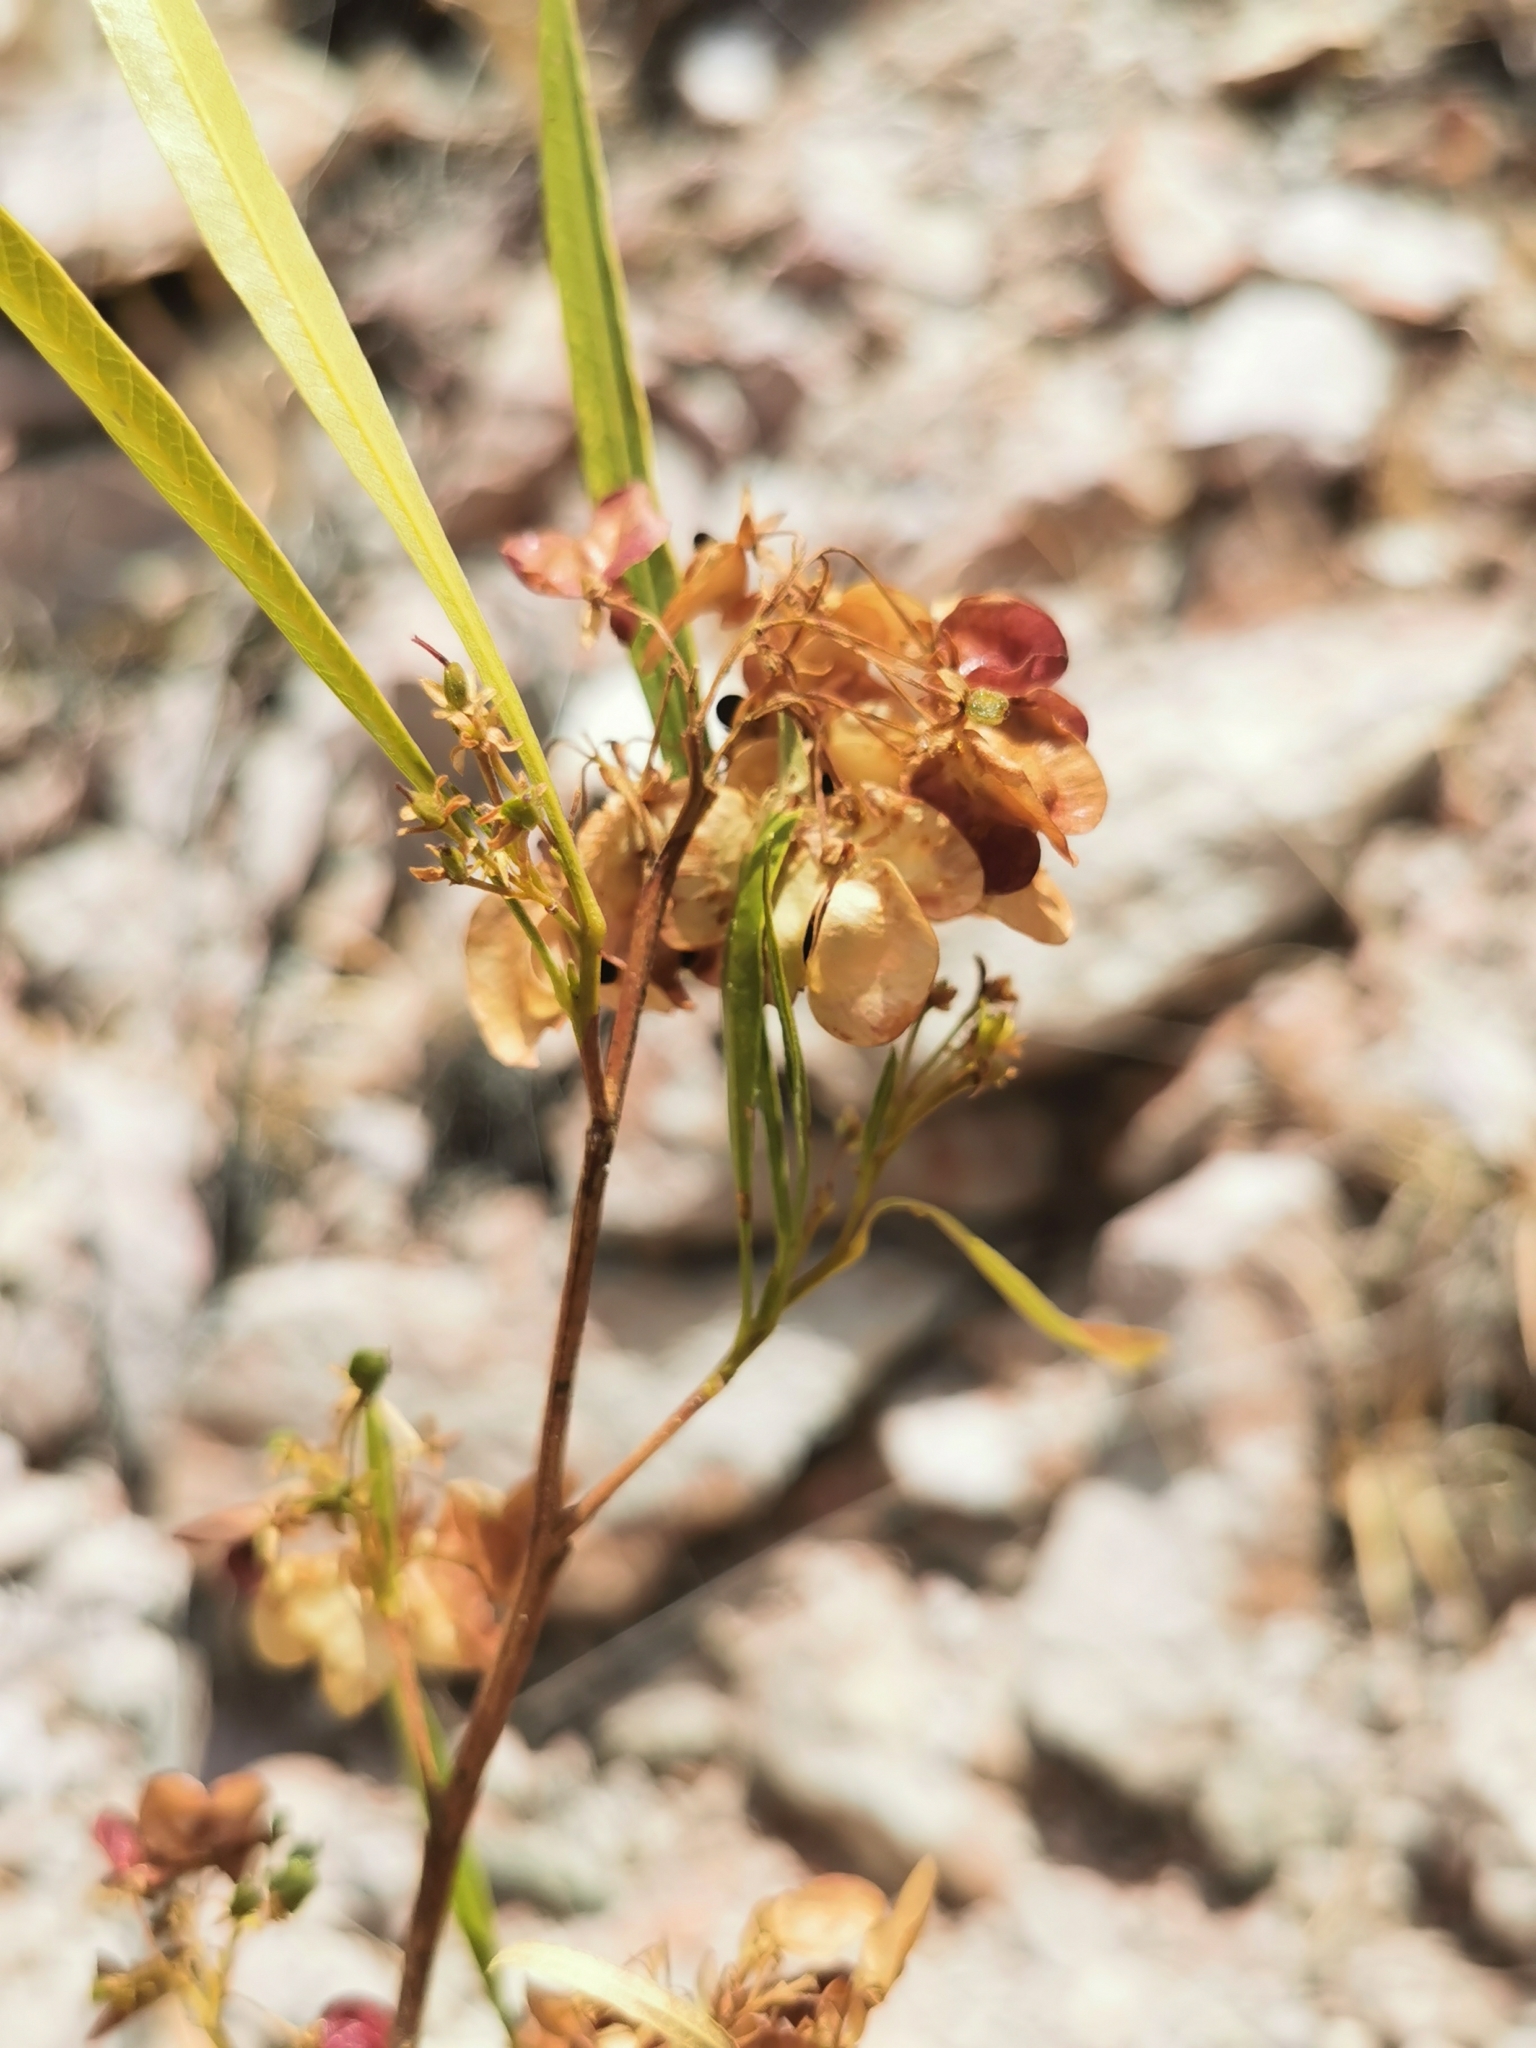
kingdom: Plantae
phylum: Tracheophyta
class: Magnoliopsida
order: Sapindales
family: Sapindaceae
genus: Dodonaea
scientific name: Dodonaea viscosa
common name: Hopbush
